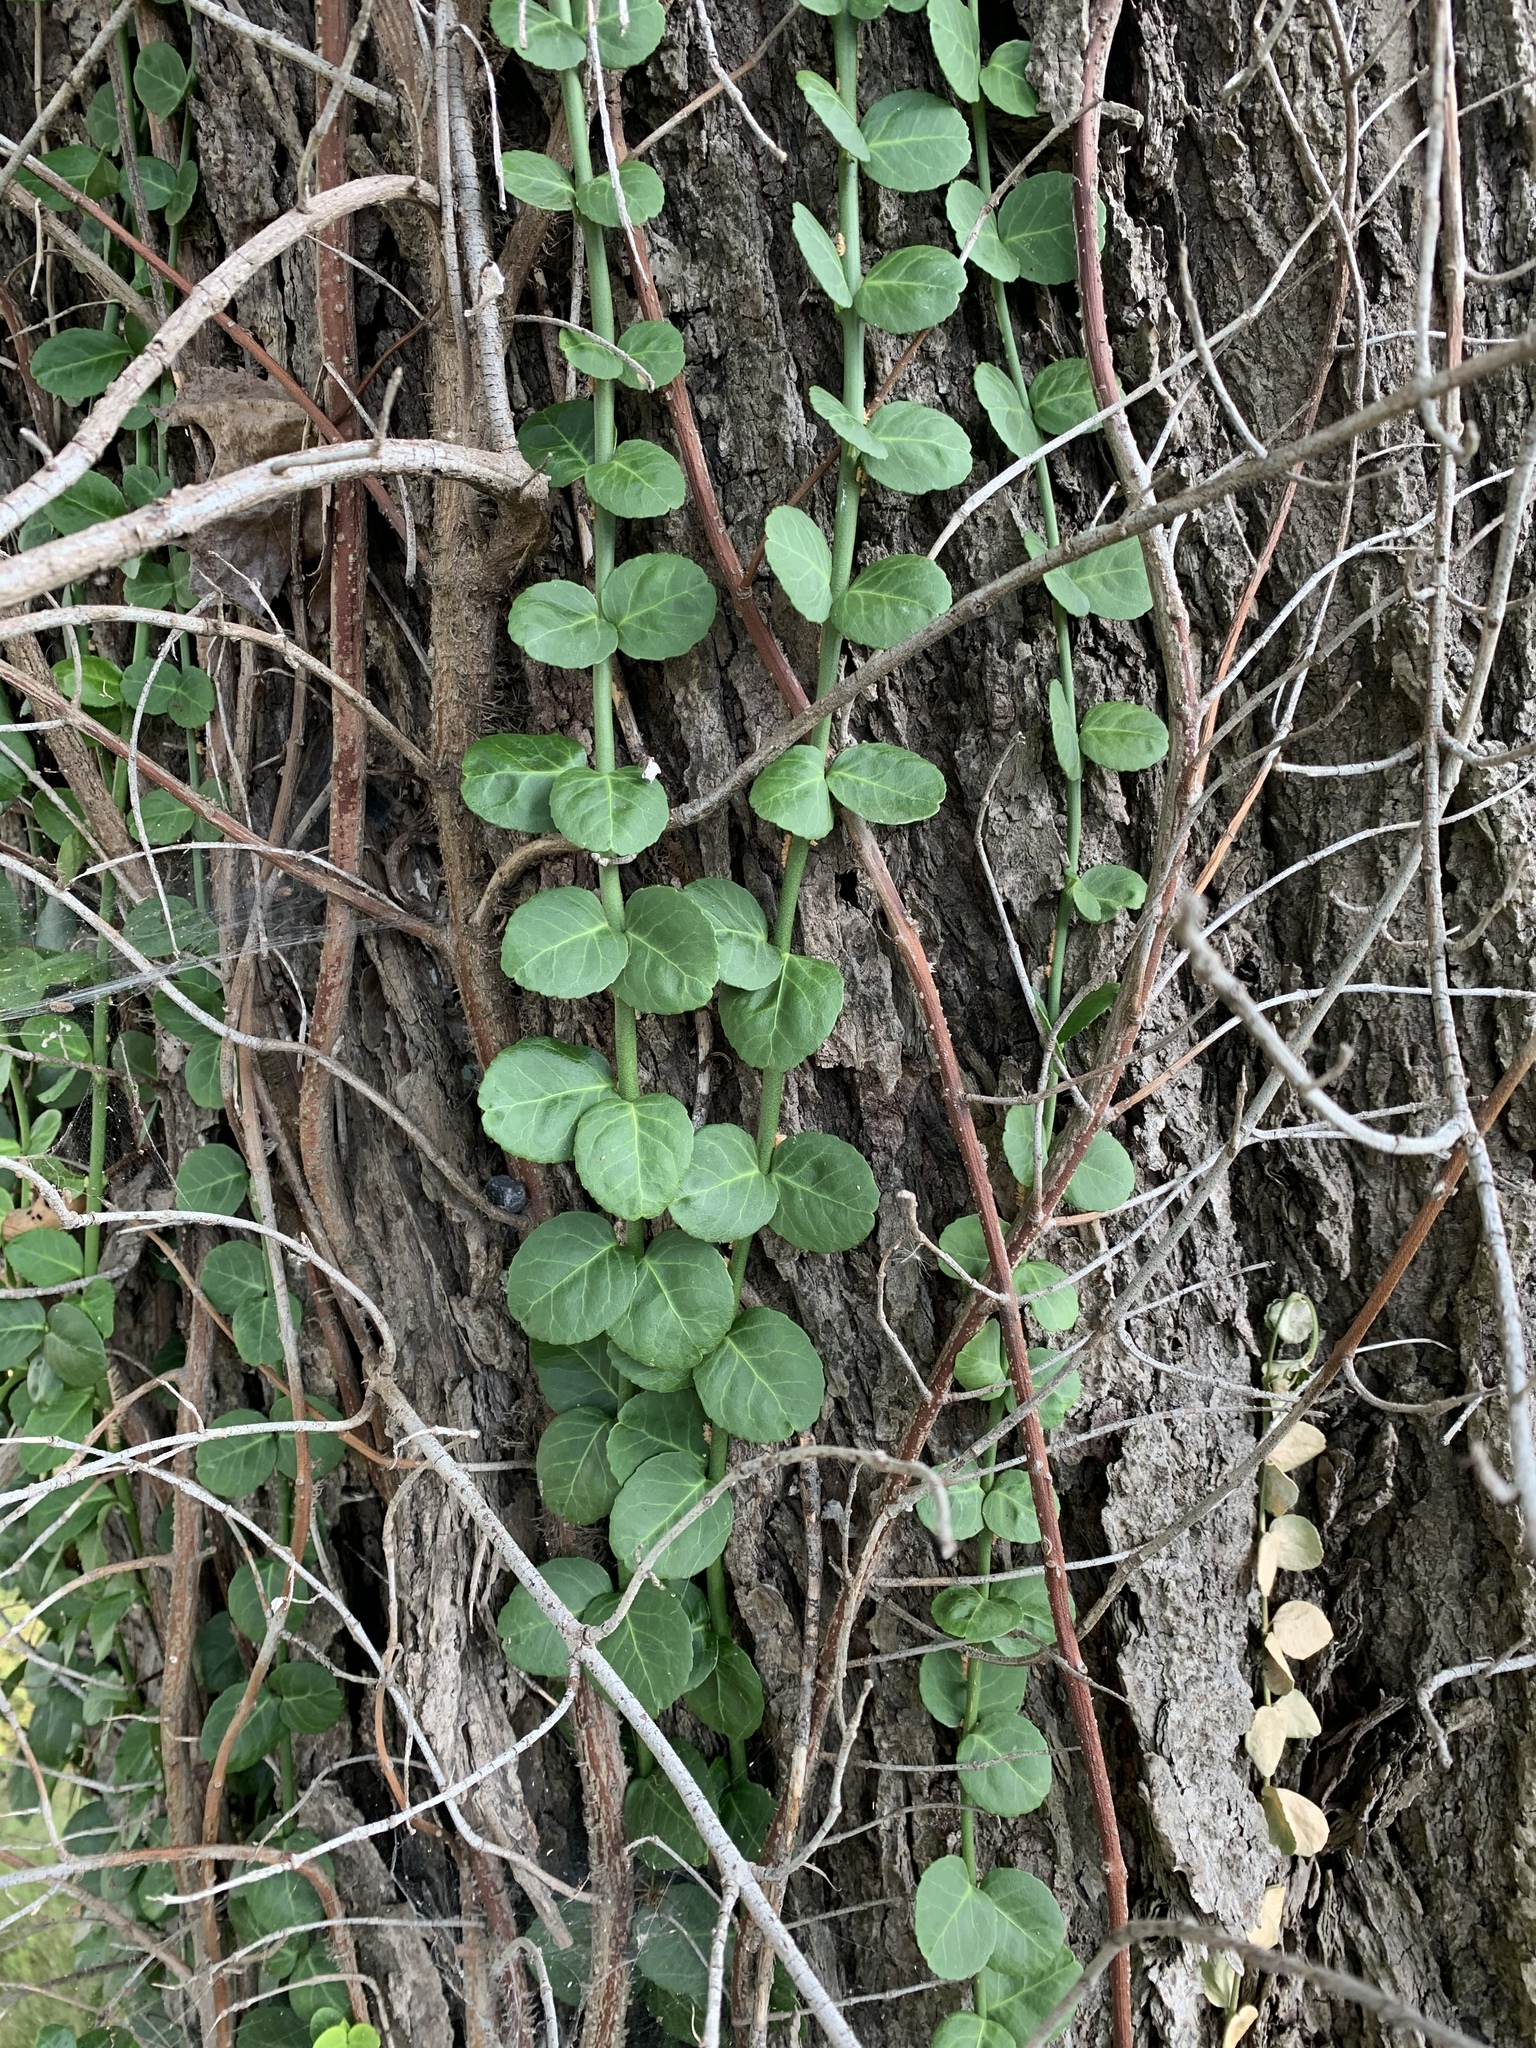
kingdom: Plantae
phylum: Tracheophyta
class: Magnoliopsida
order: Celastrales
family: Celastraceae
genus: Euonymus
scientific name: Euonymus fortunei
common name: Climbing euonymus
